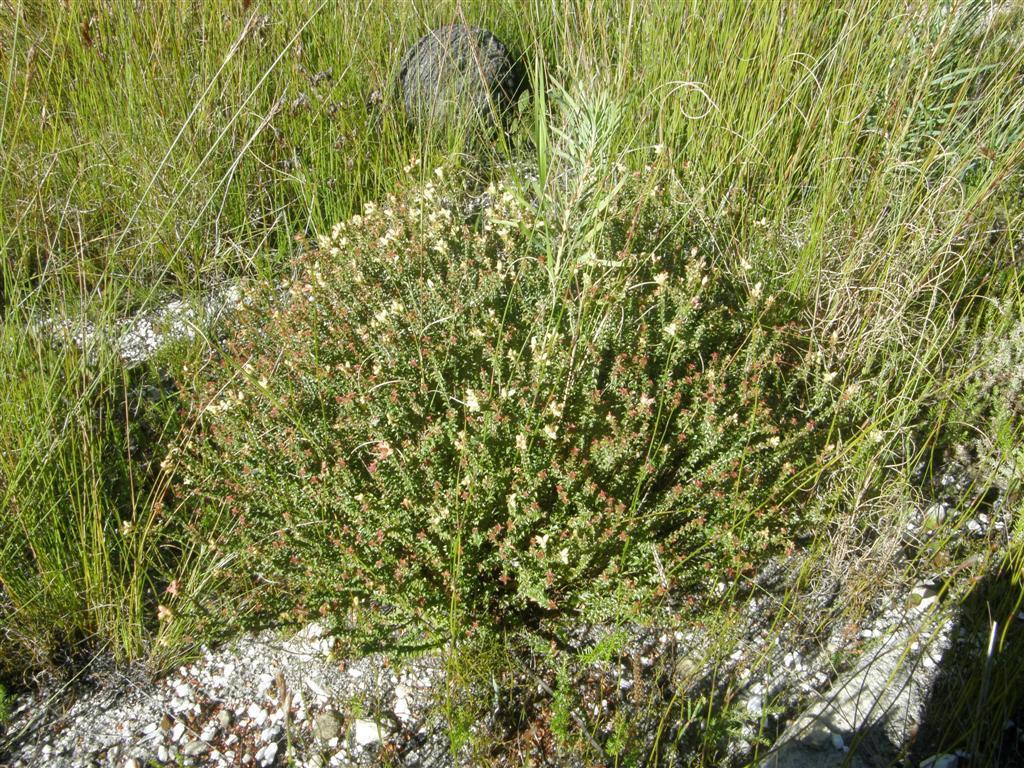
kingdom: Plantae
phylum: Tracheophyta
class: Magnoliopsida
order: Myrtales
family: Penaeaceae
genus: Penaea
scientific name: Penaea mucronata
